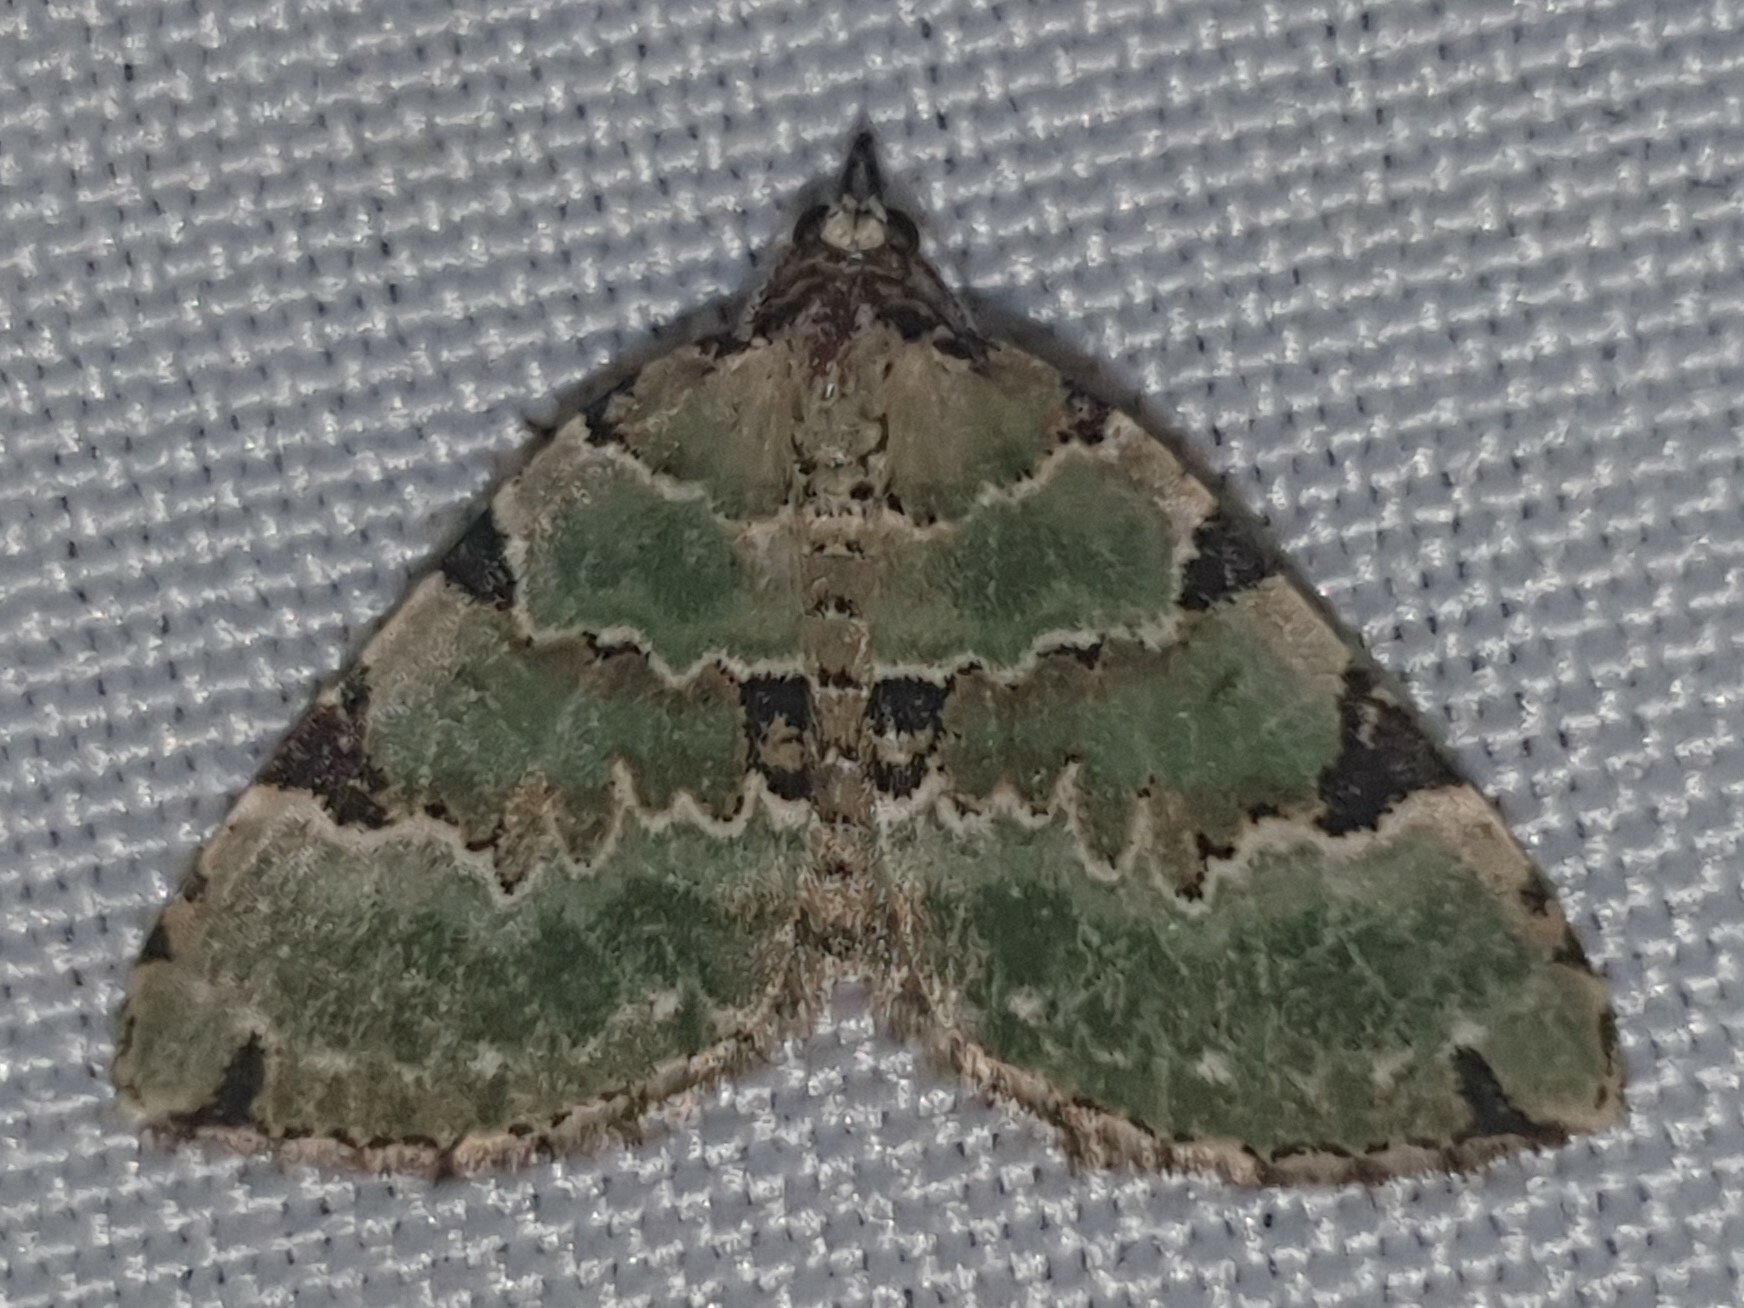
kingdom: Animalia
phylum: Arthropoda
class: Insecta
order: Lepidoptera
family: Geometridae
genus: Colostygia
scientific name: Colostygia pectinataria
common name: Green carpet
